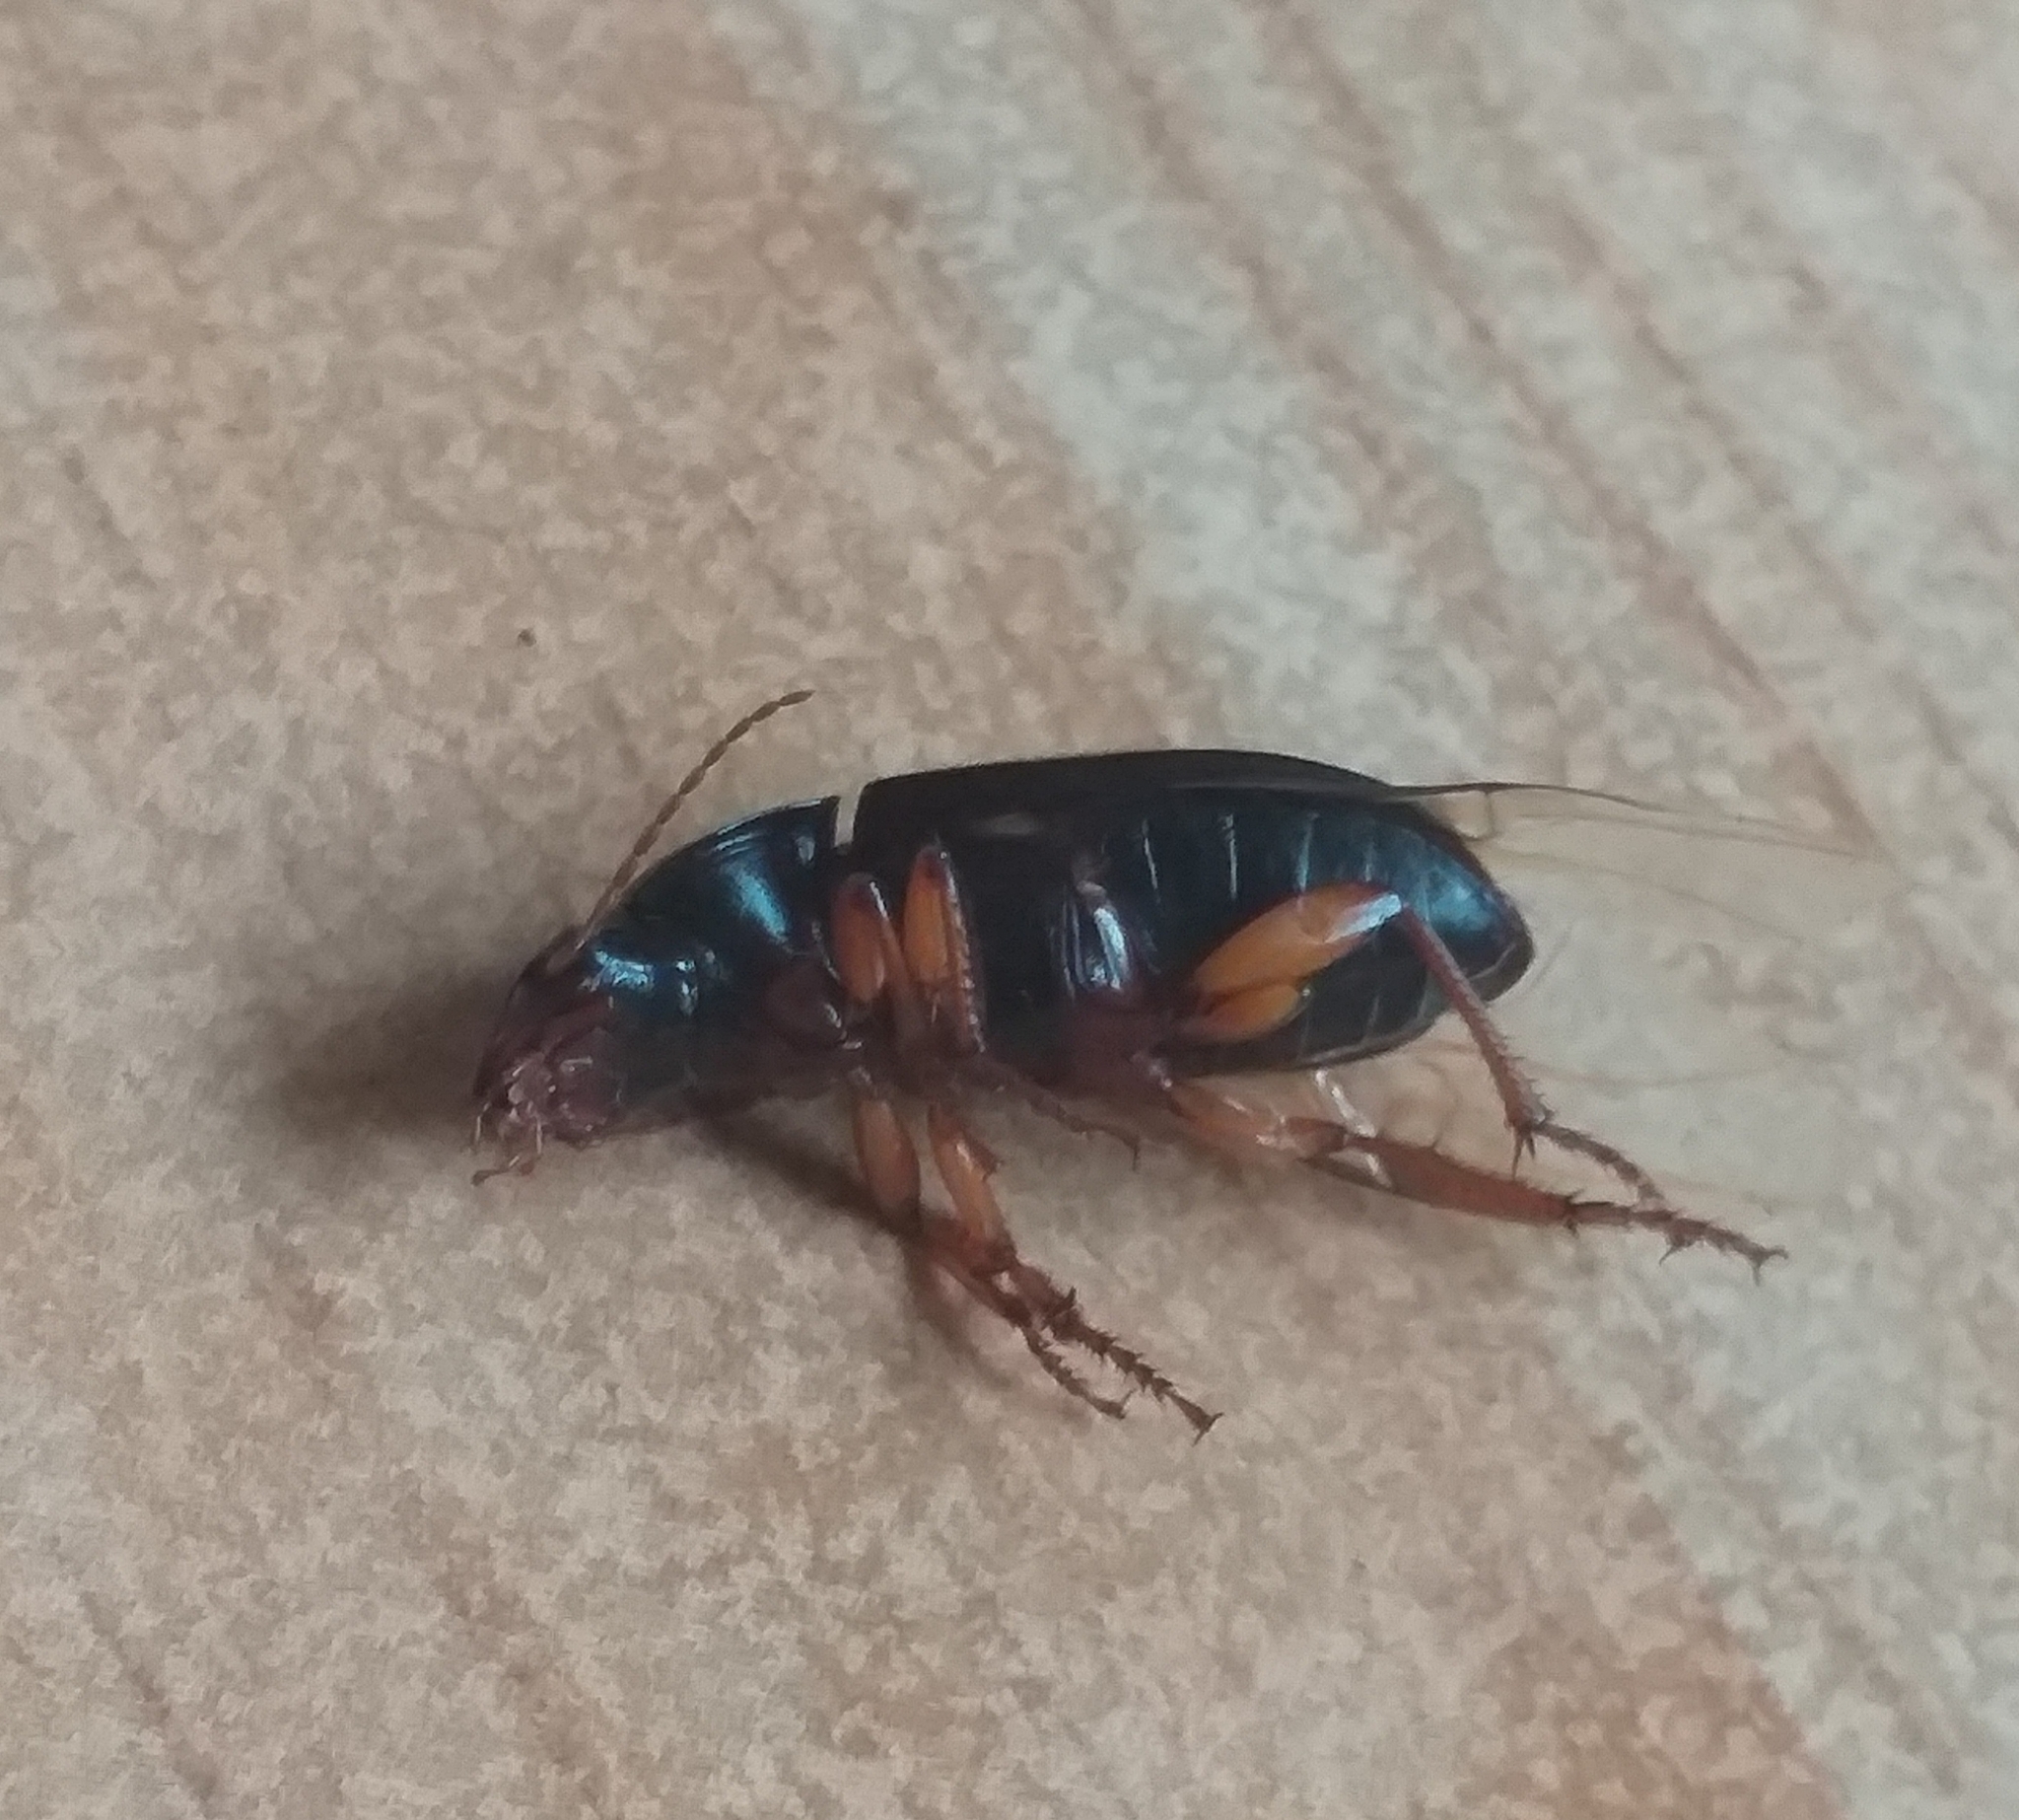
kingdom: Animalia
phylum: Arthropoda
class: Insecta
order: Coleoptera
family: Carabidae
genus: Harpalus
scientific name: Harpalus rufipes
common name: Strawberry harp ground beetle
